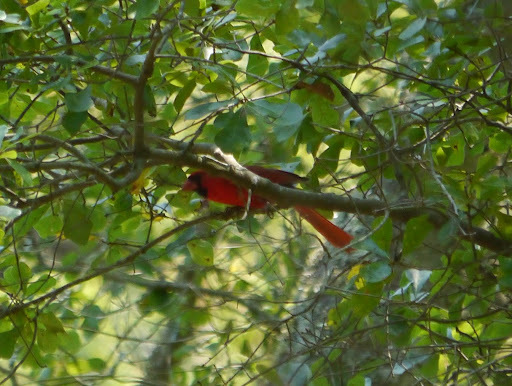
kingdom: Animalia
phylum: Chordata
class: Aves
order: Passeriformes
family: Cardinalidae
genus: Cardinalis
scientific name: Cardinalis cardinalis
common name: Northern cardinal
